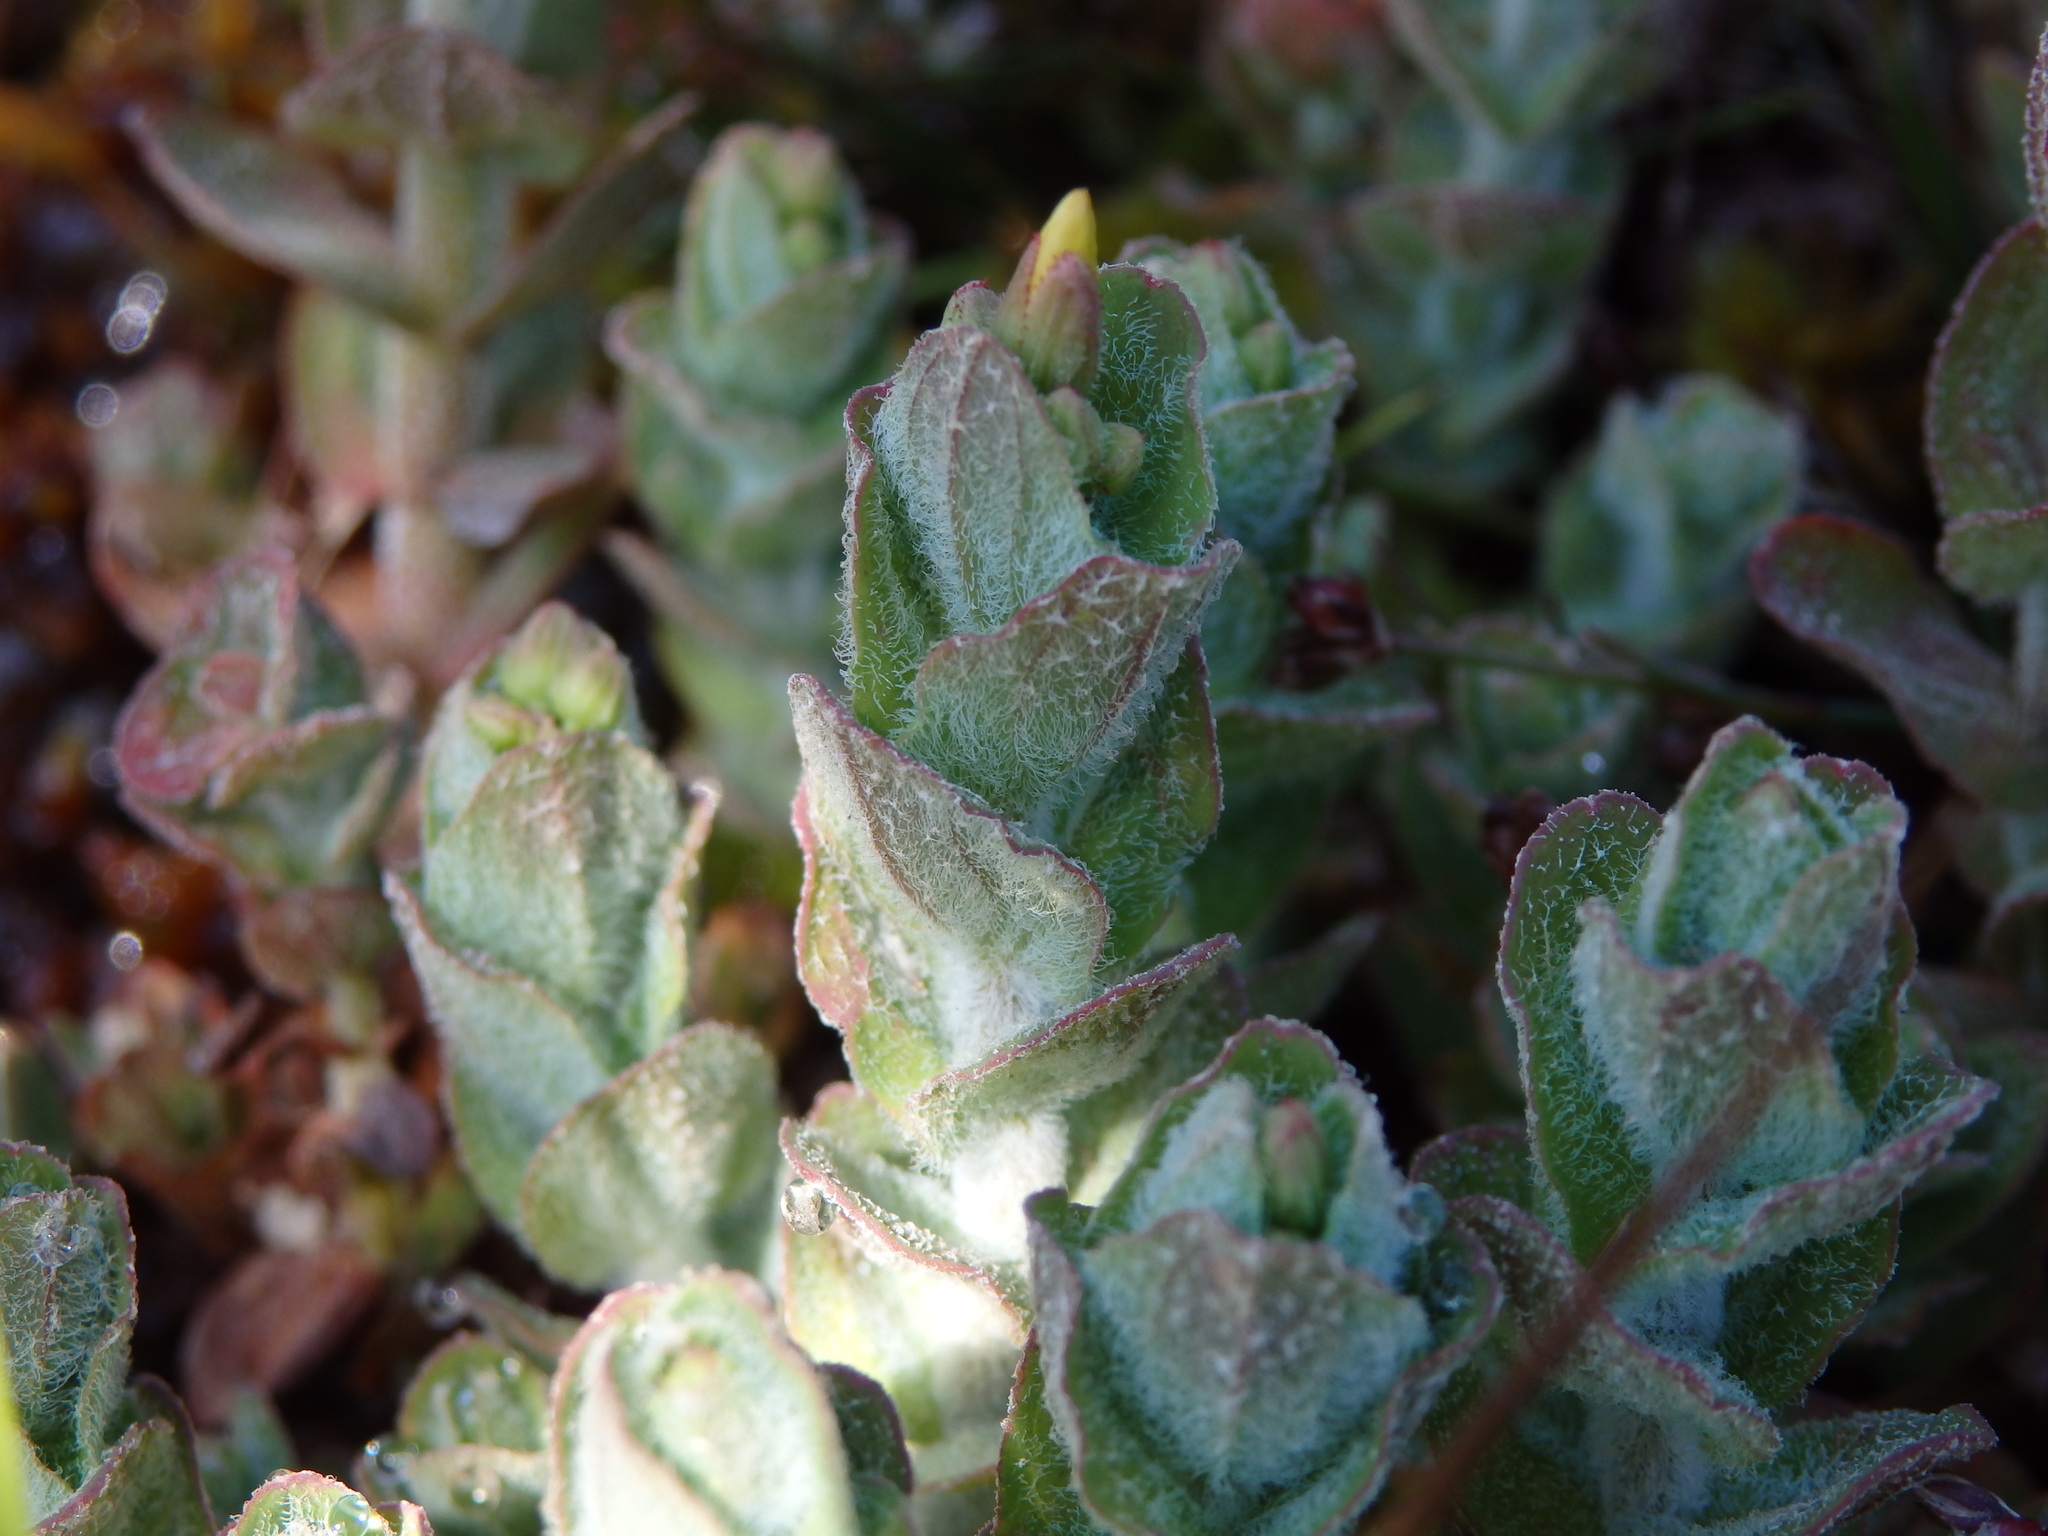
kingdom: Plantae
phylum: Tracheophyta
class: Magnoliopsida
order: Malpighiales
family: Hypericaceae
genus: Hypericum
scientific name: Hypericum elodes
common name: Marsh st. john's-wort
